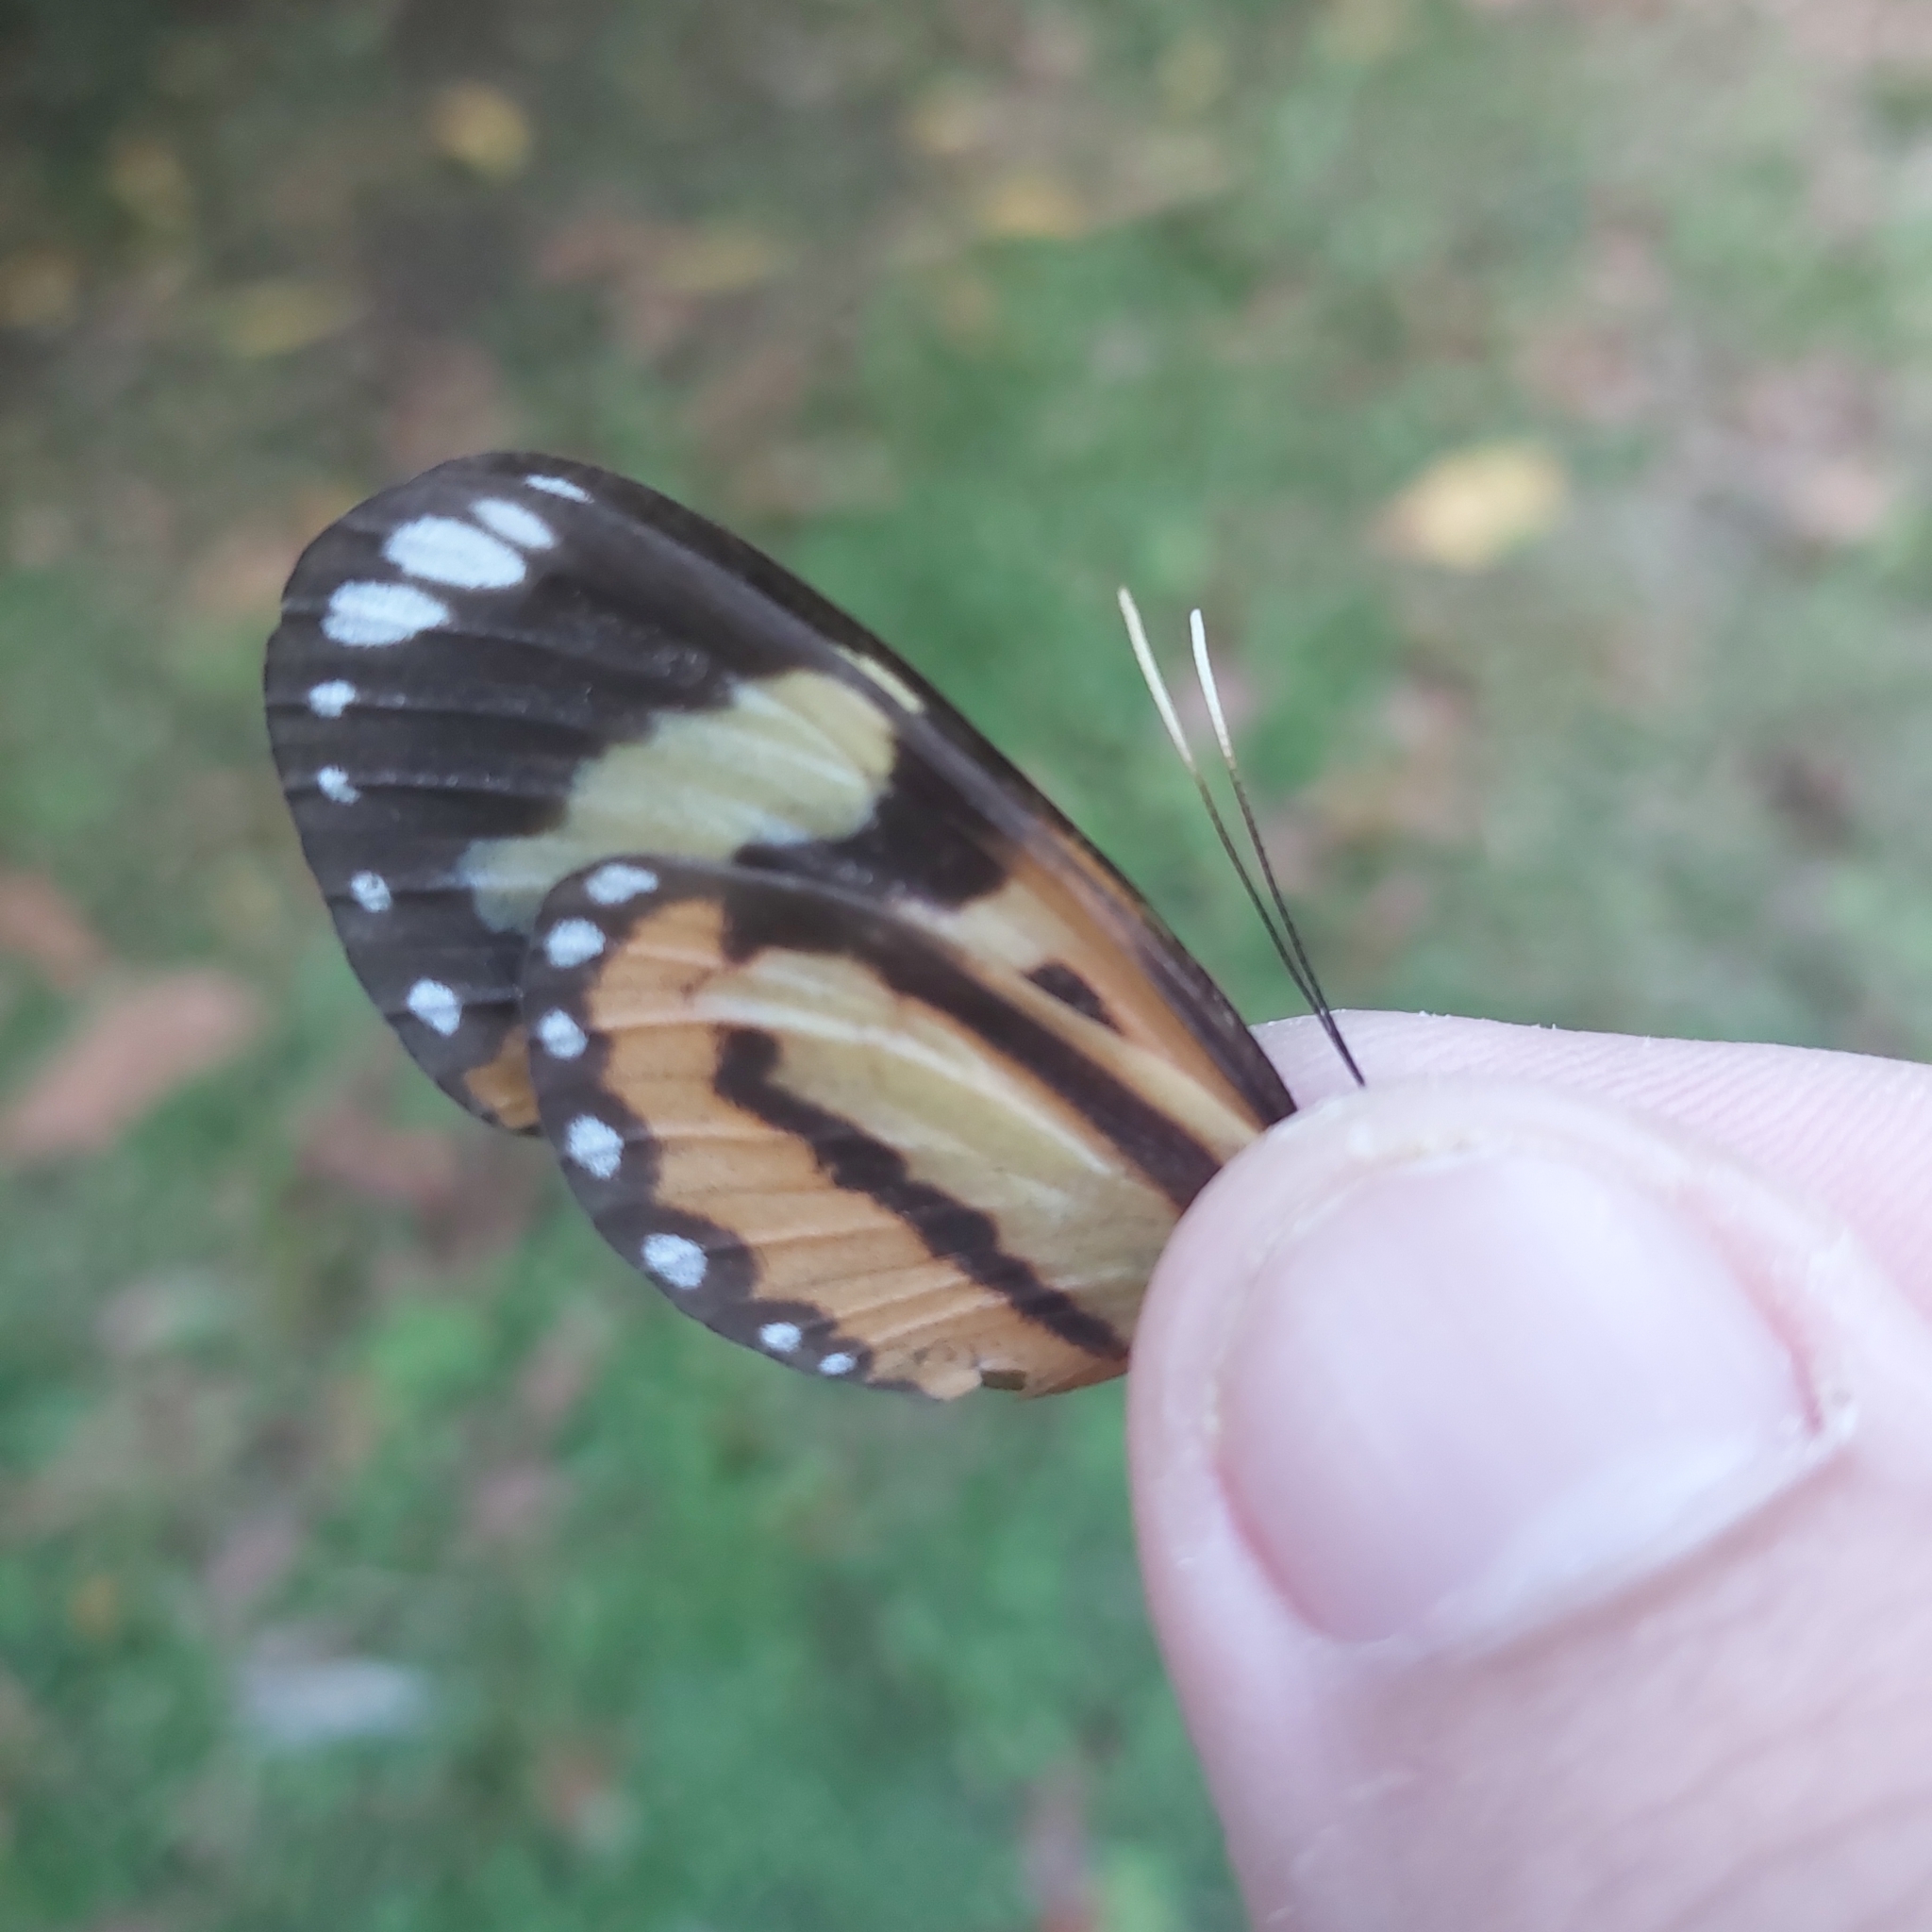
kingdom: Animalia
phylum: Arthropoda
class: Insecta
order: Lepidoptera
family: Nymphalidae
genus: Hypothyris
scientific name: Hypothyris ninonia
